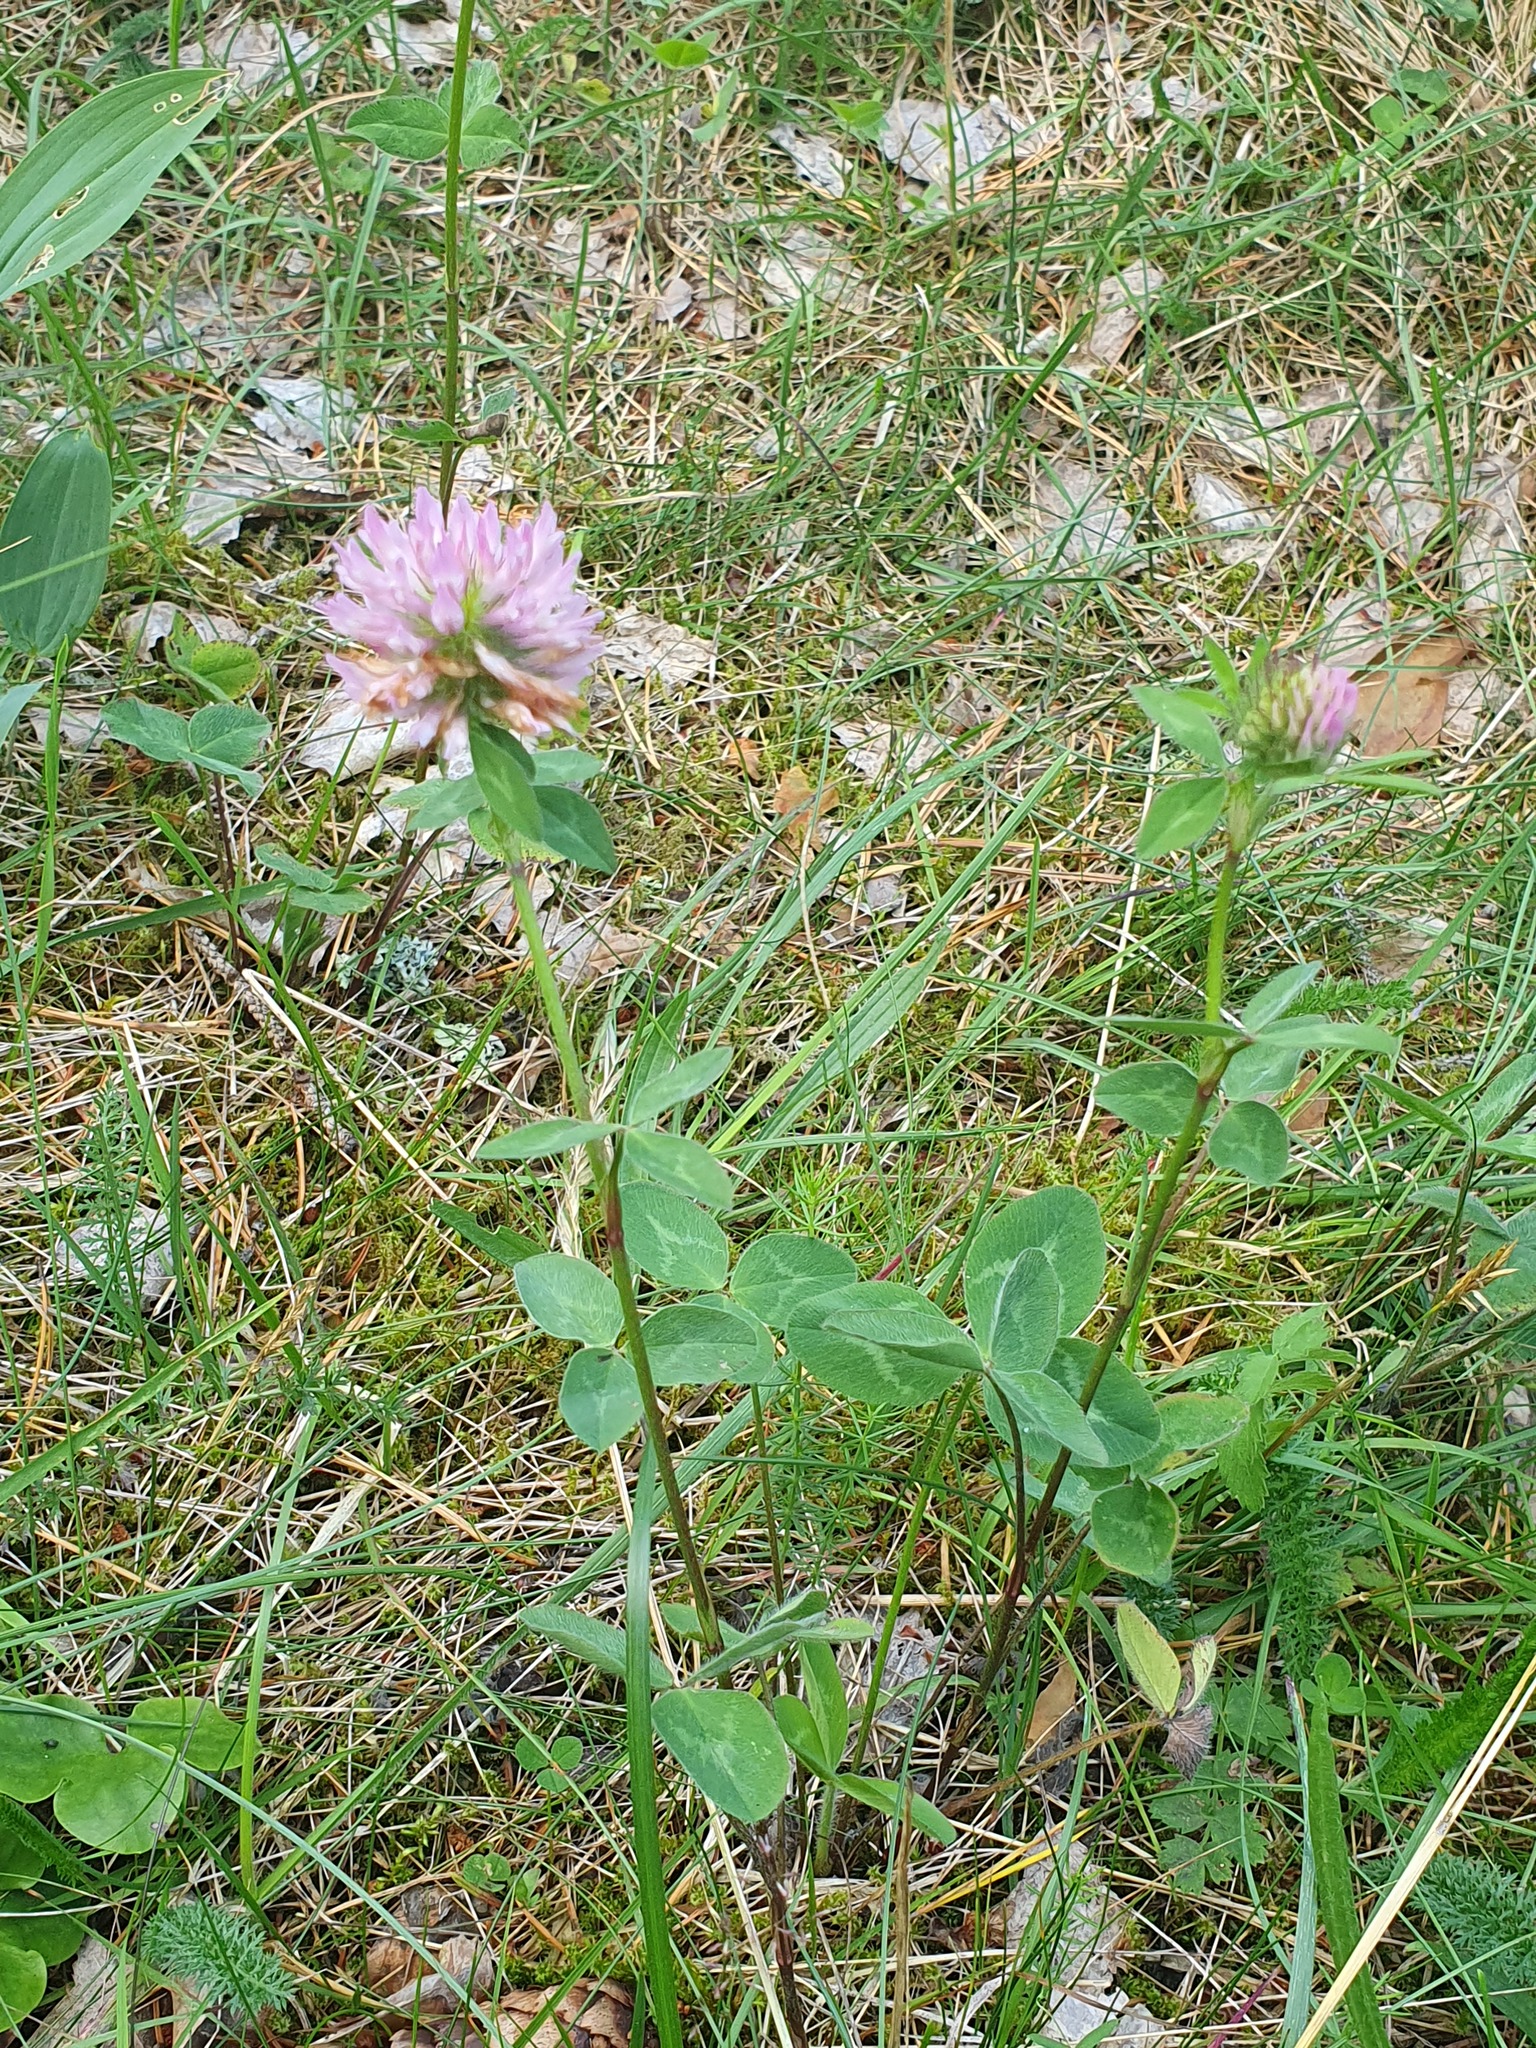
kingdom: Plantae
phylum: Tracheophyta
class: Magnoliopsida
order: Fabales
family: Fabaceae
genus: Trifolium
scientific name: Trifolium pratense
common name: Red clover
